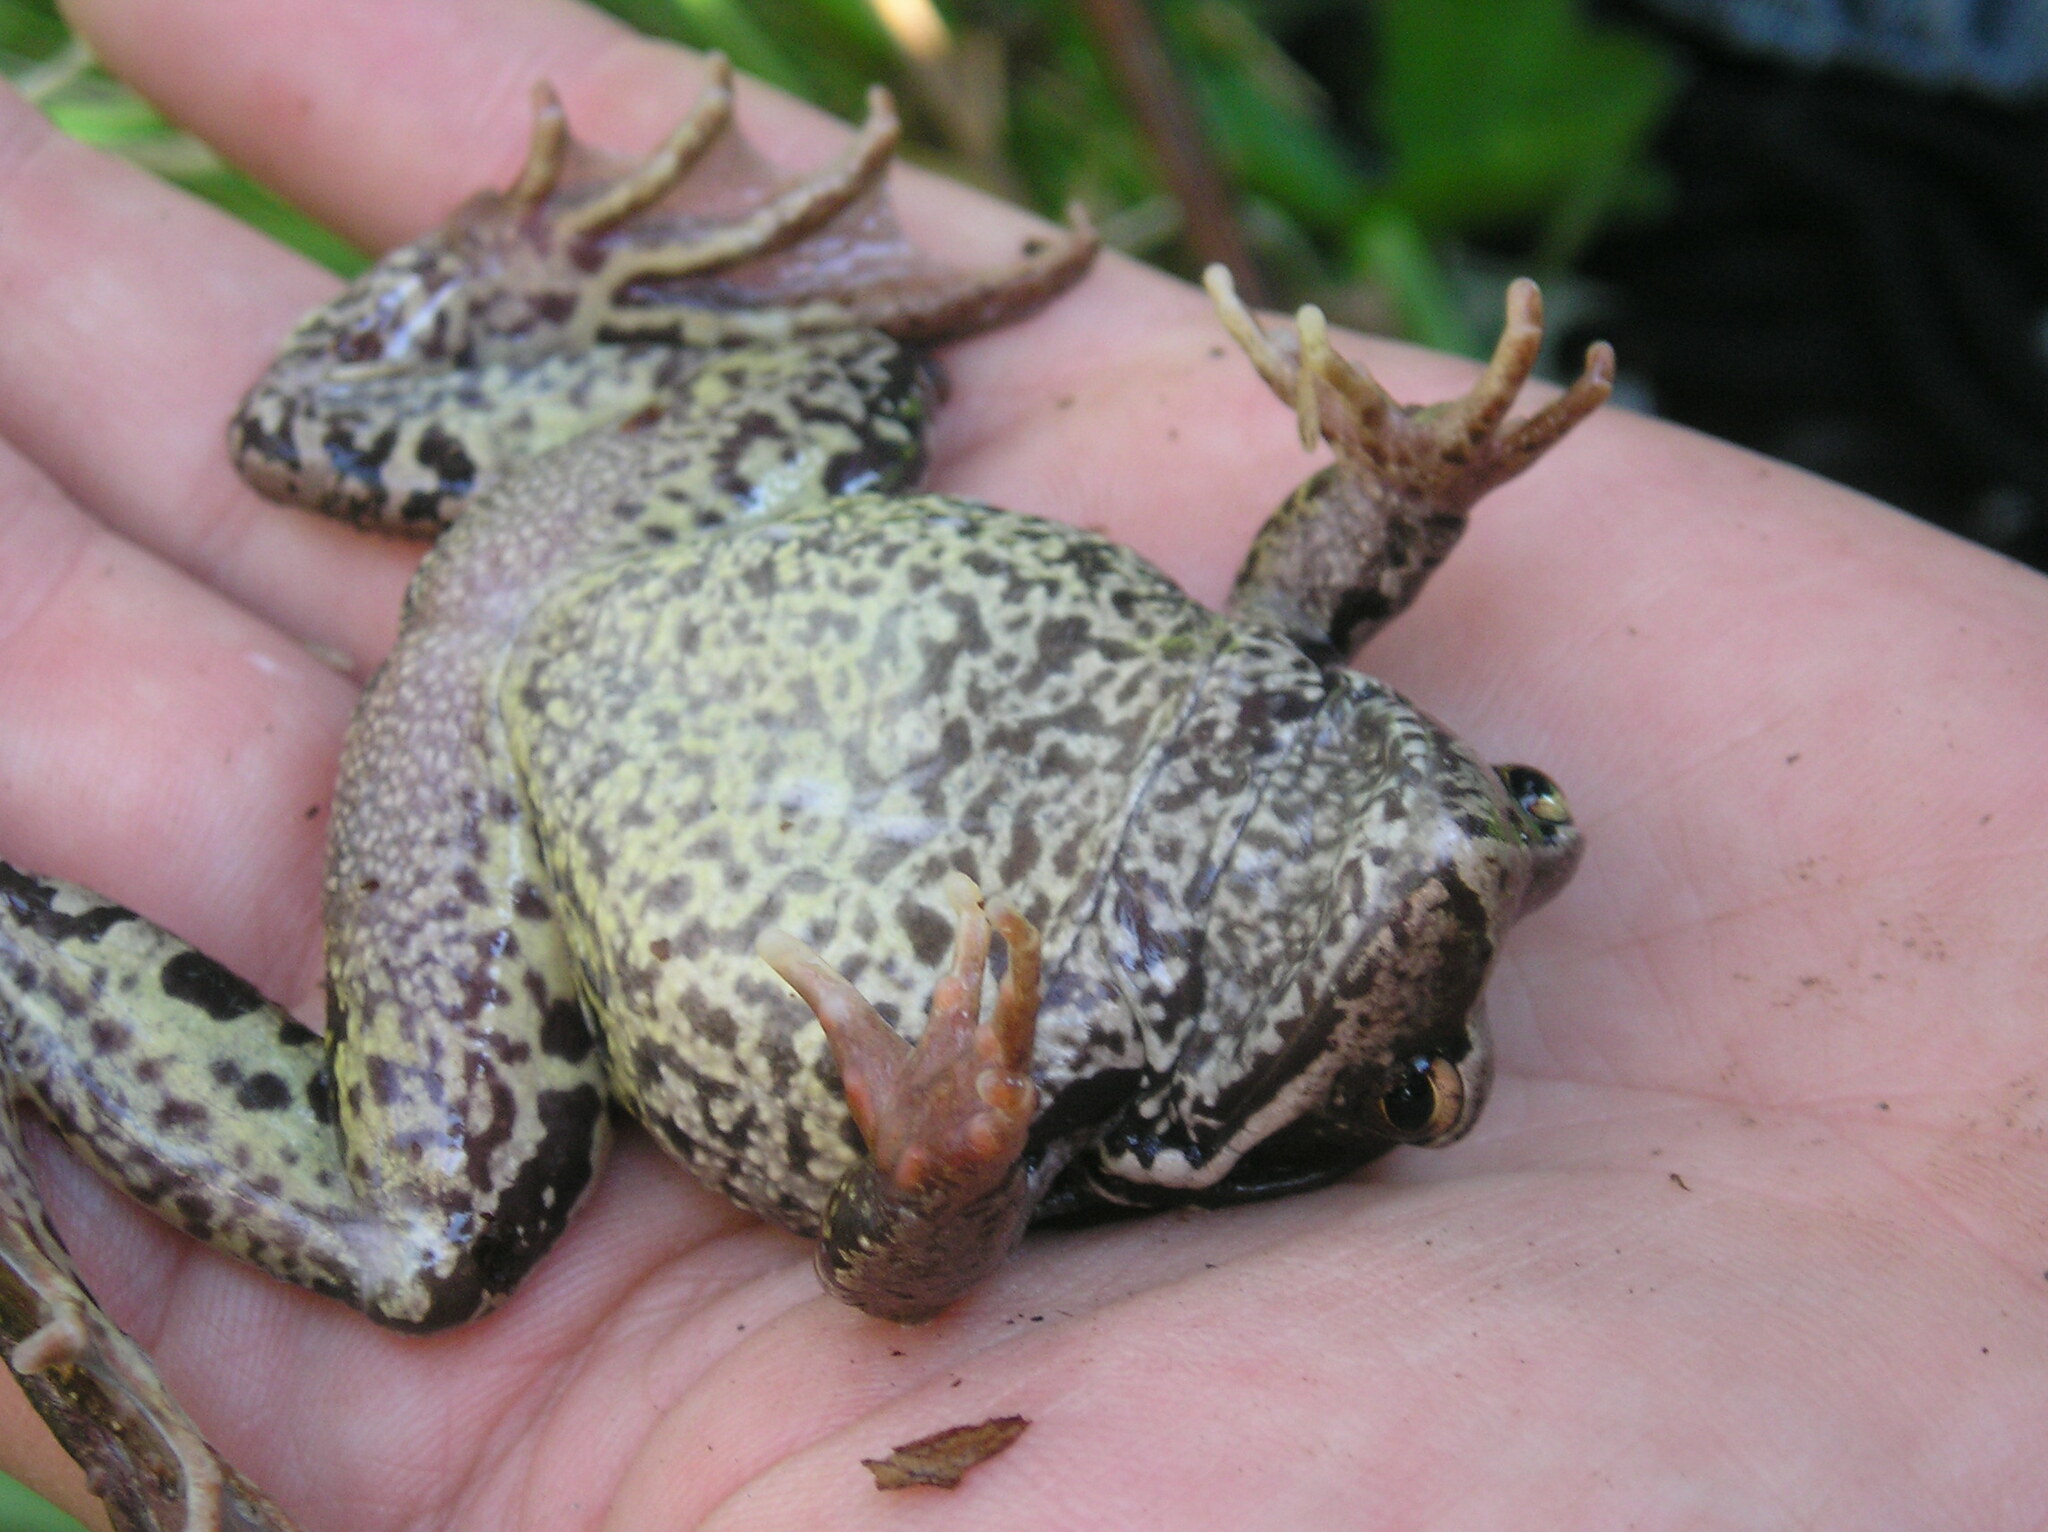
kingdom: Animalia
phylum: Chordata
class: Amphibia
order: Anura
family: Ranidae
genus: Rana
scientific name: Rana temporaria
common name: Common frog
